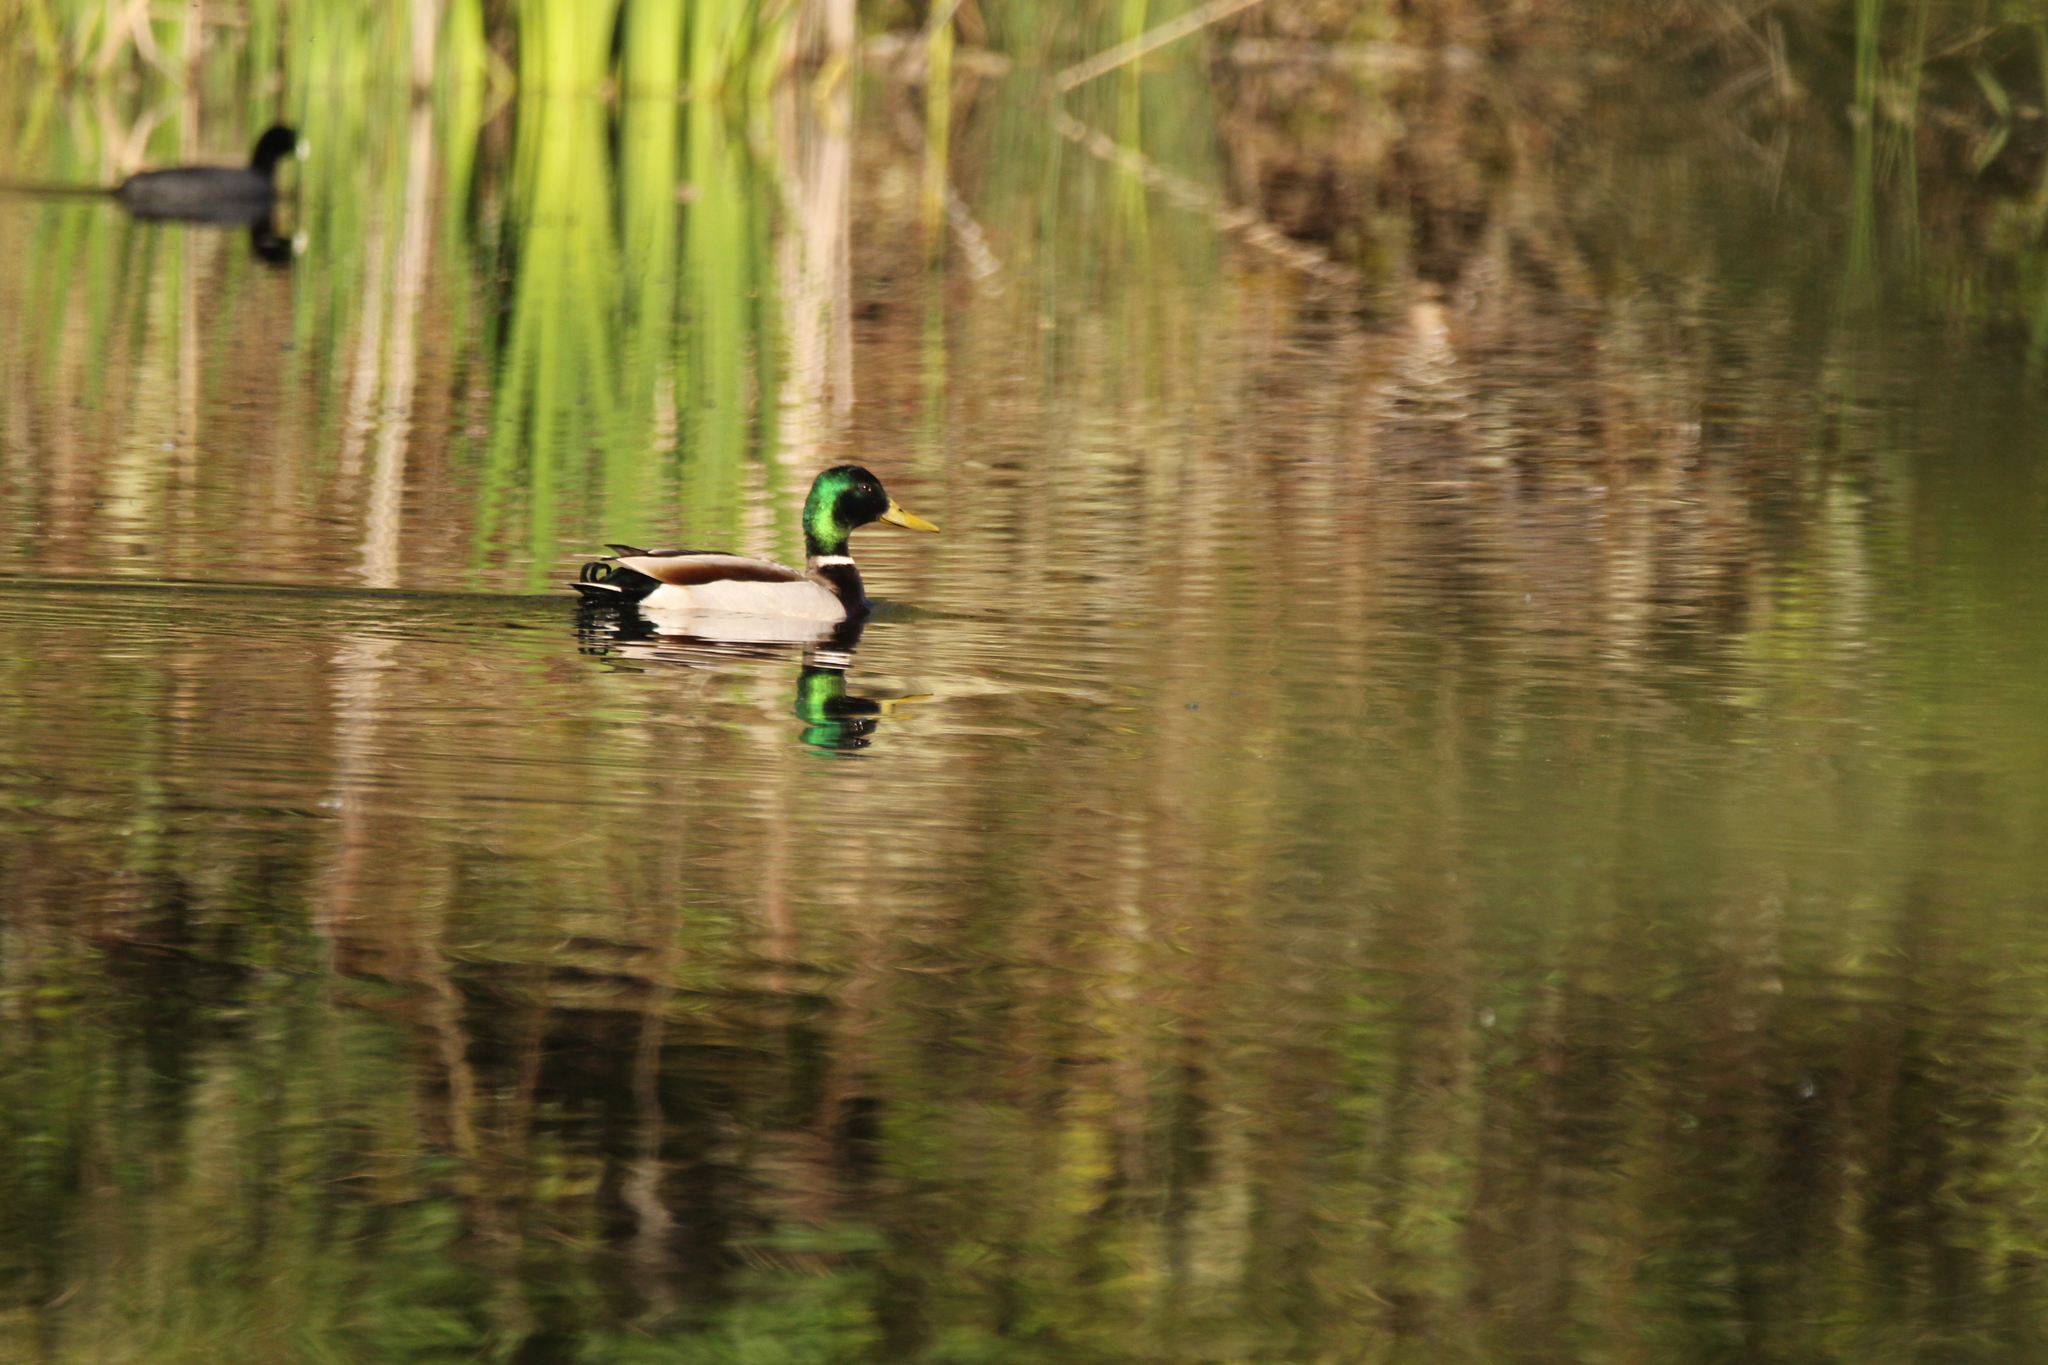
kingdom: Animalia
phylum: Chordata
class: Aves
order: Anseriformes
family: Anatidae
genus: Anas
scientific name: Anas platyrhynchos
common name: Mallard
